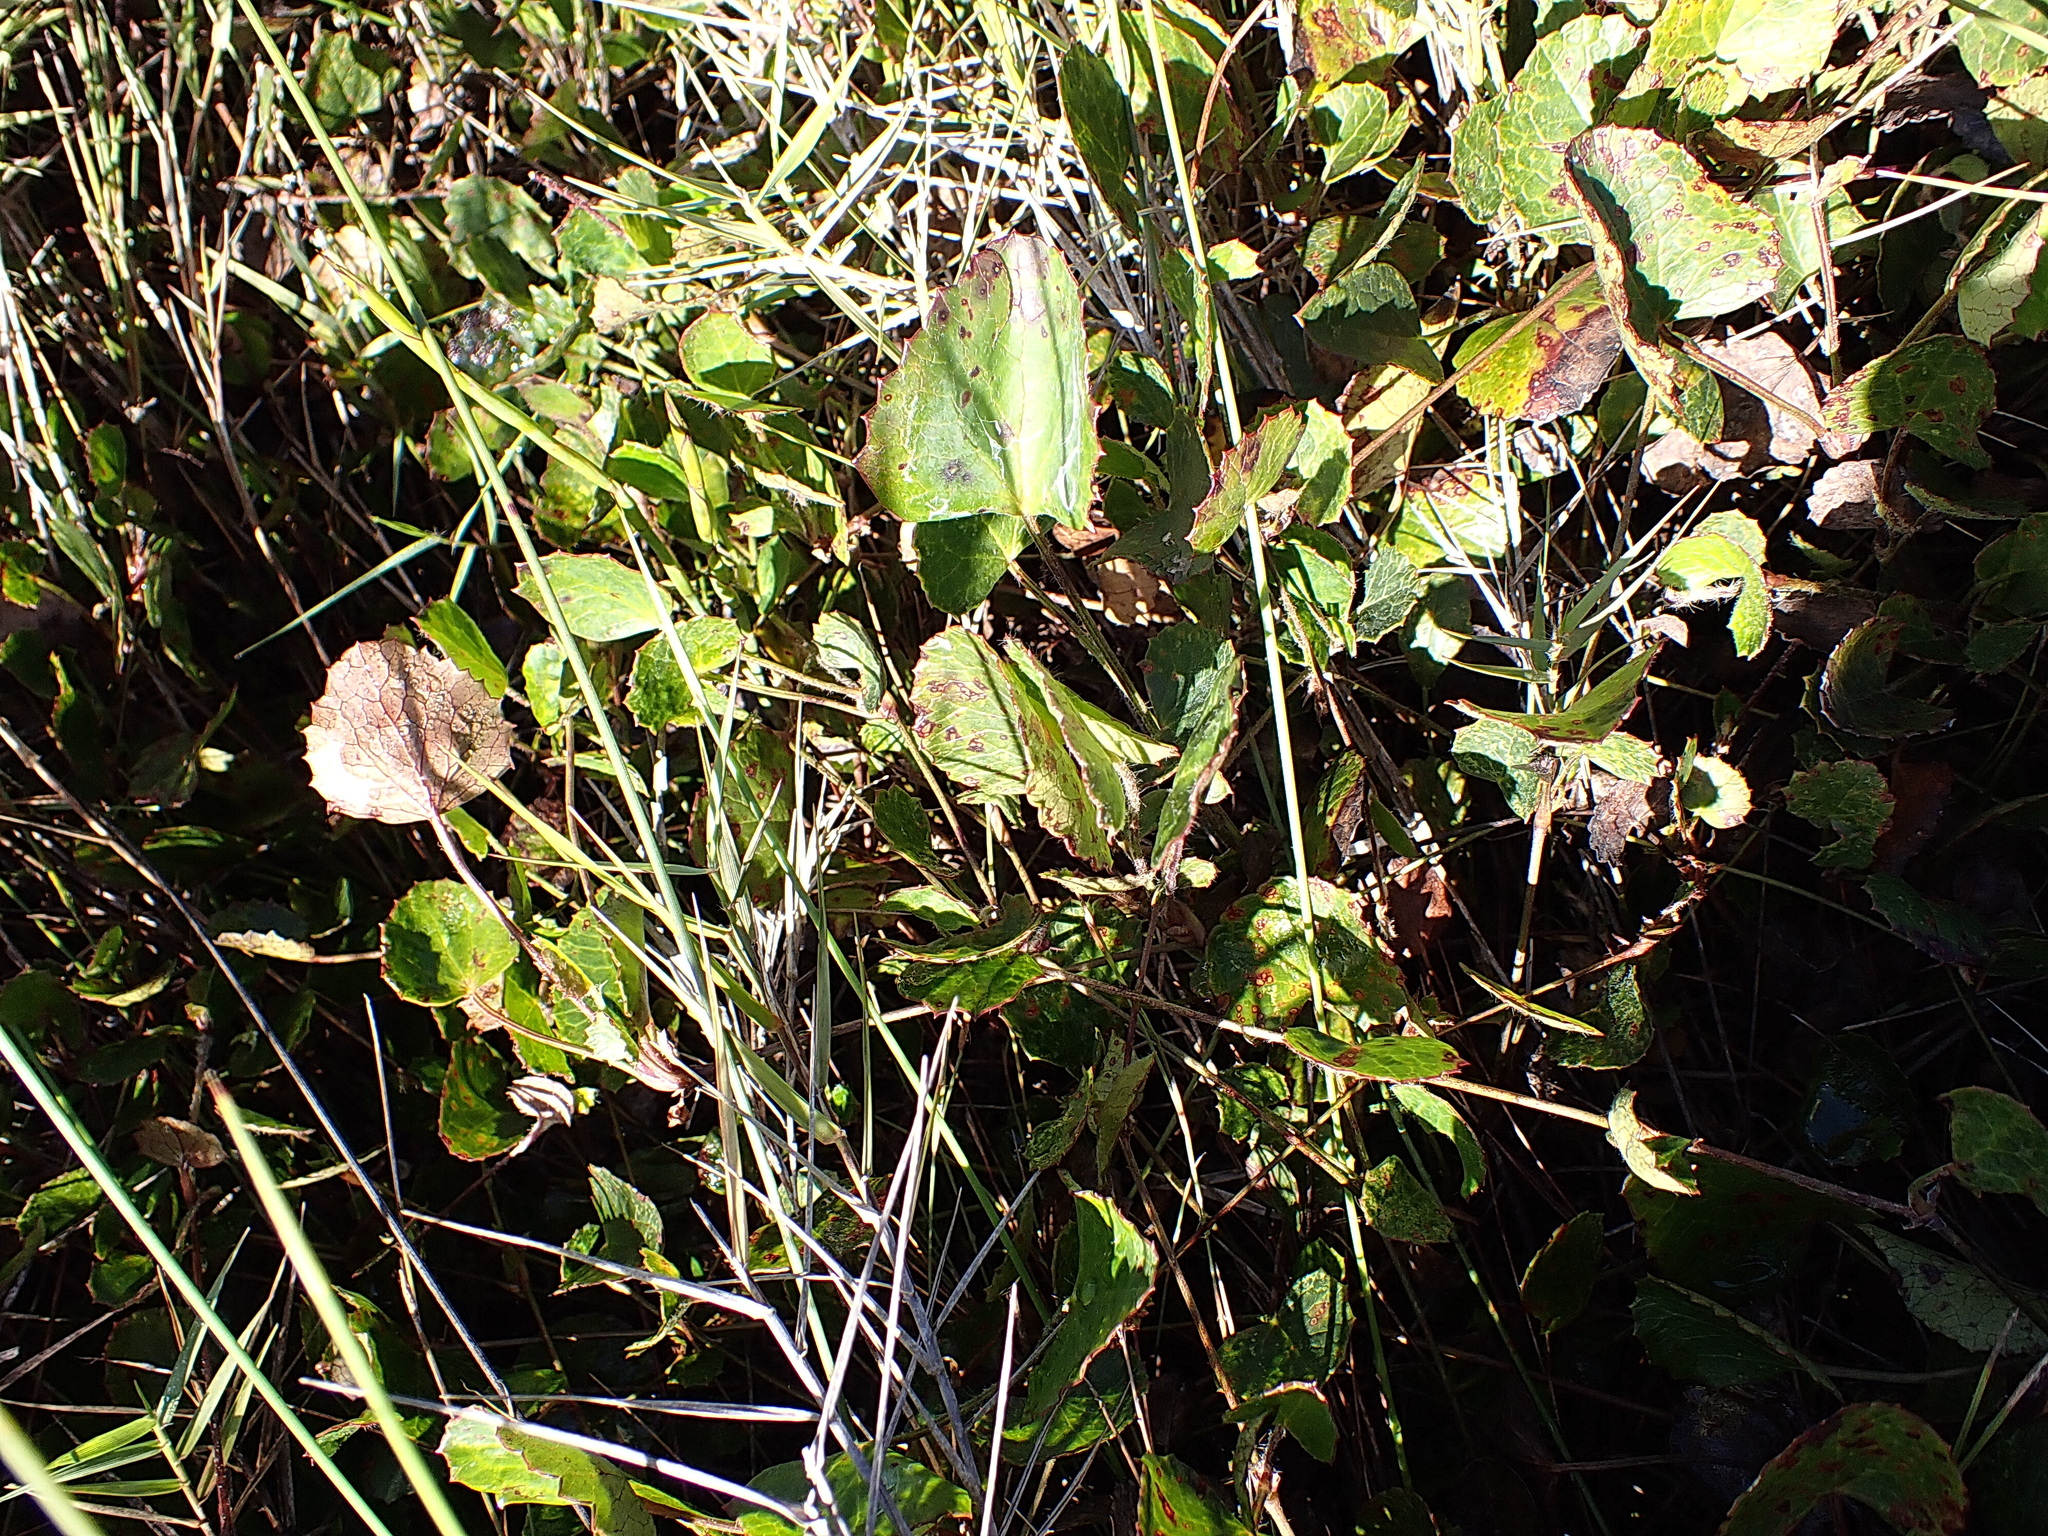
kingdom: Plantae
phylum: Tracheophyta
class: Magnoliopsida
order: Apiales
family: Apiaceae
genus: Centella
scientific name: Centella eriantha
